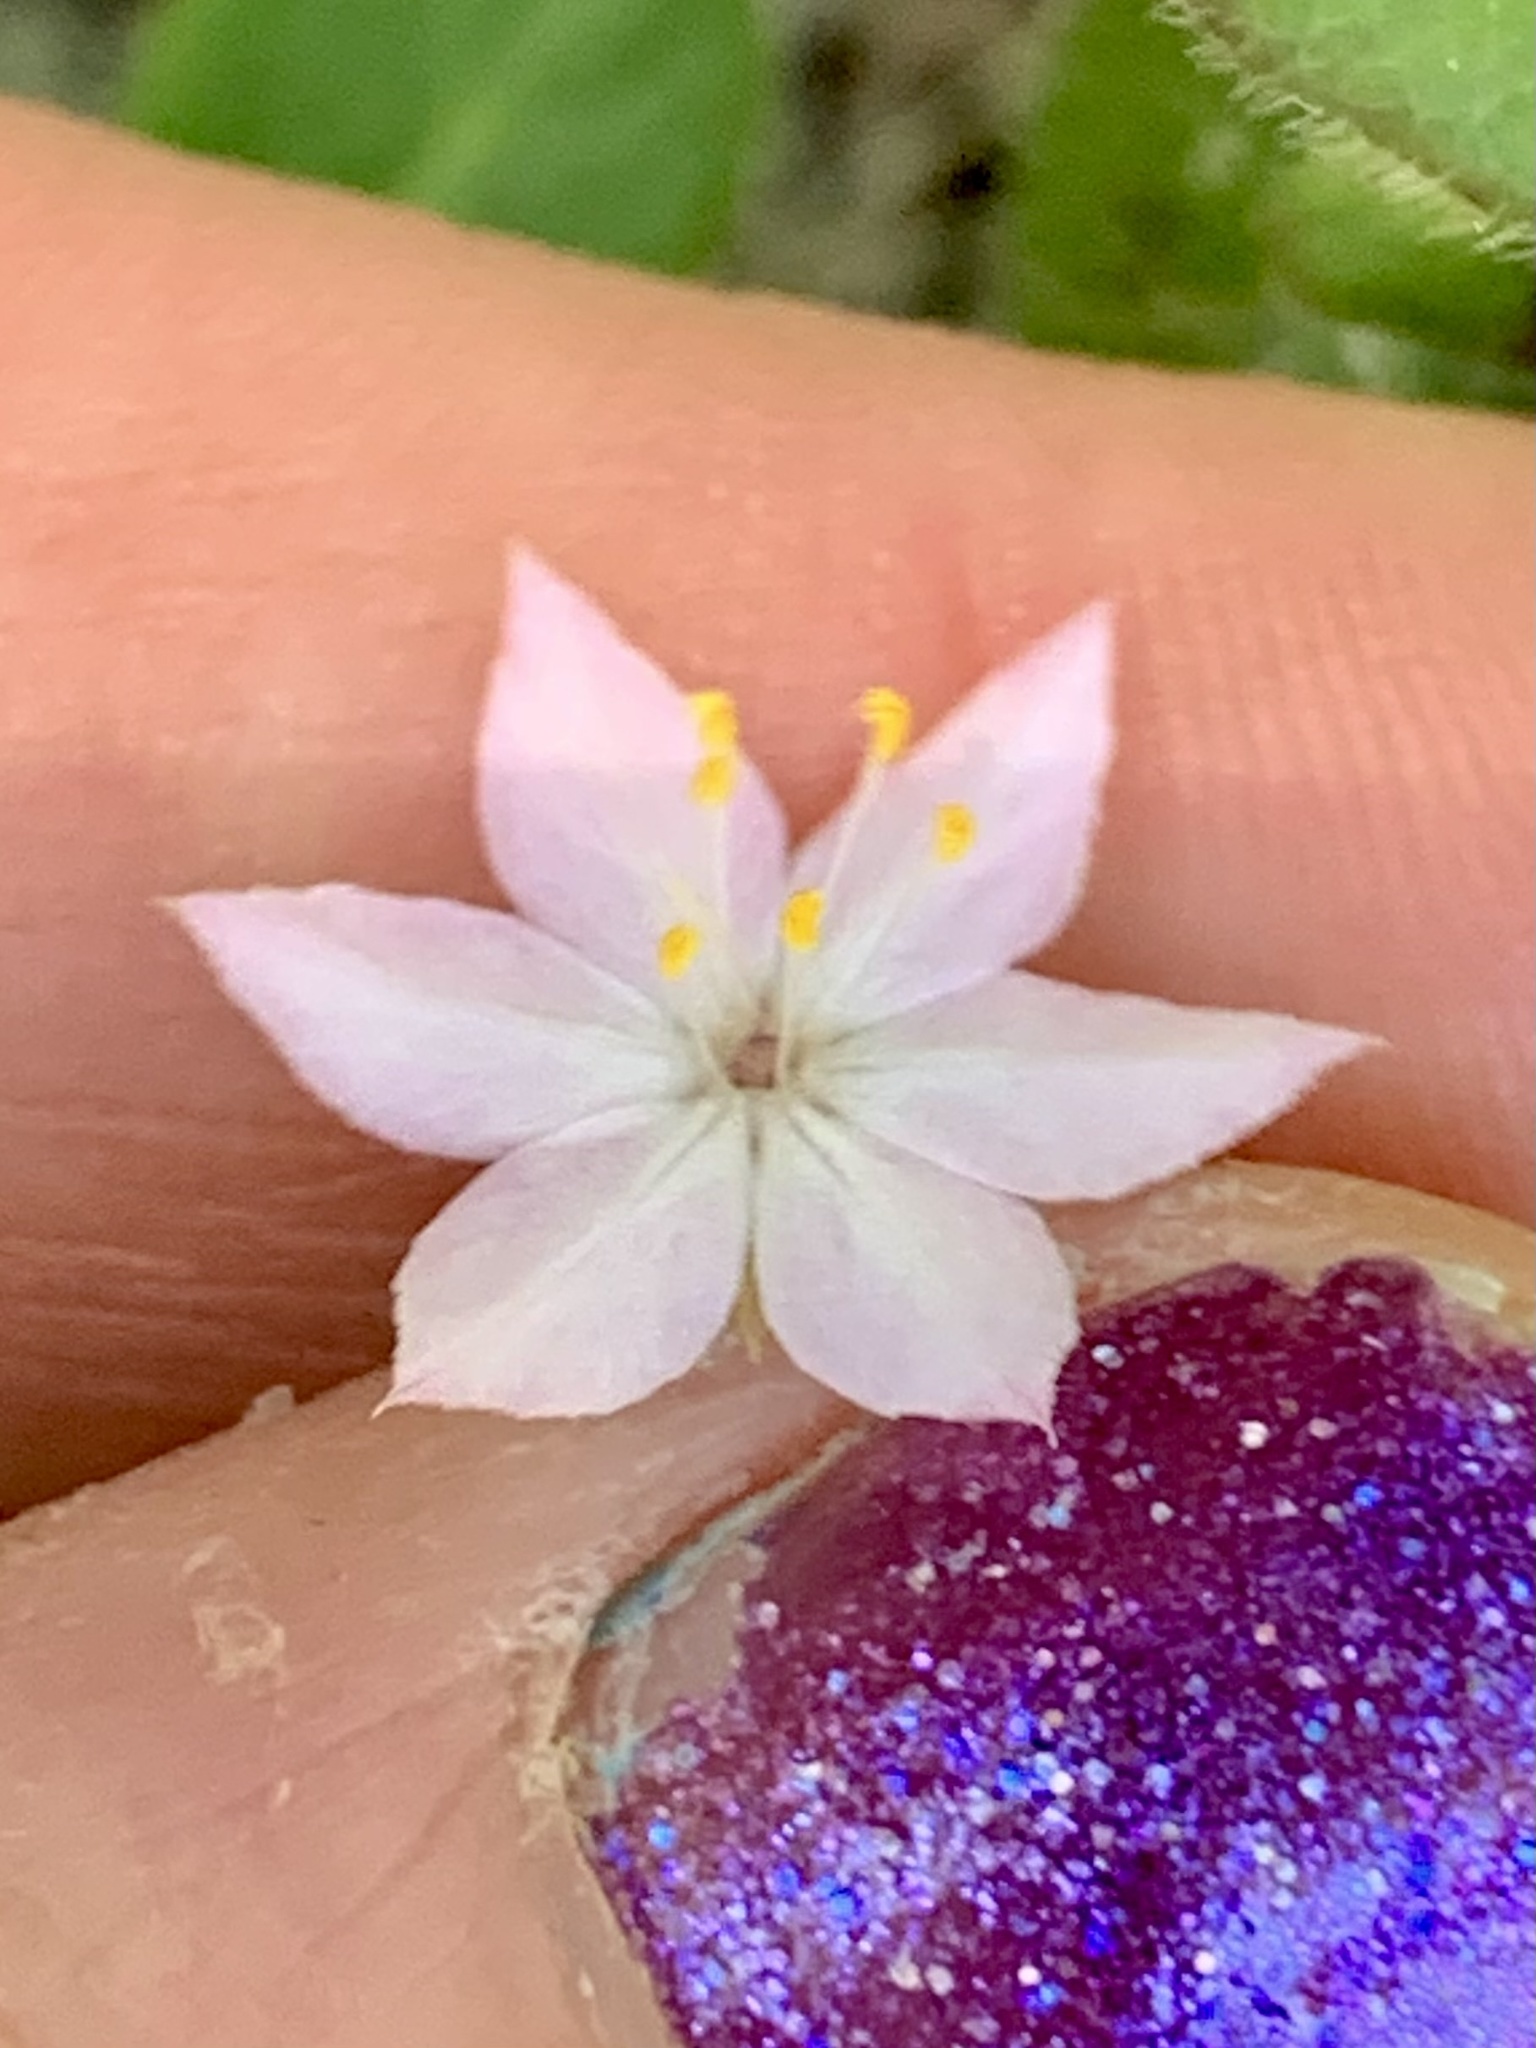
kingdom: Plantae
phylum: Tracheophyta
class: Magnoliopsida
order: Ericales
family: Primulaceae
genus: Lysimachia
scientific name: Lysimachia latifolia
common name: Pacific starflower
